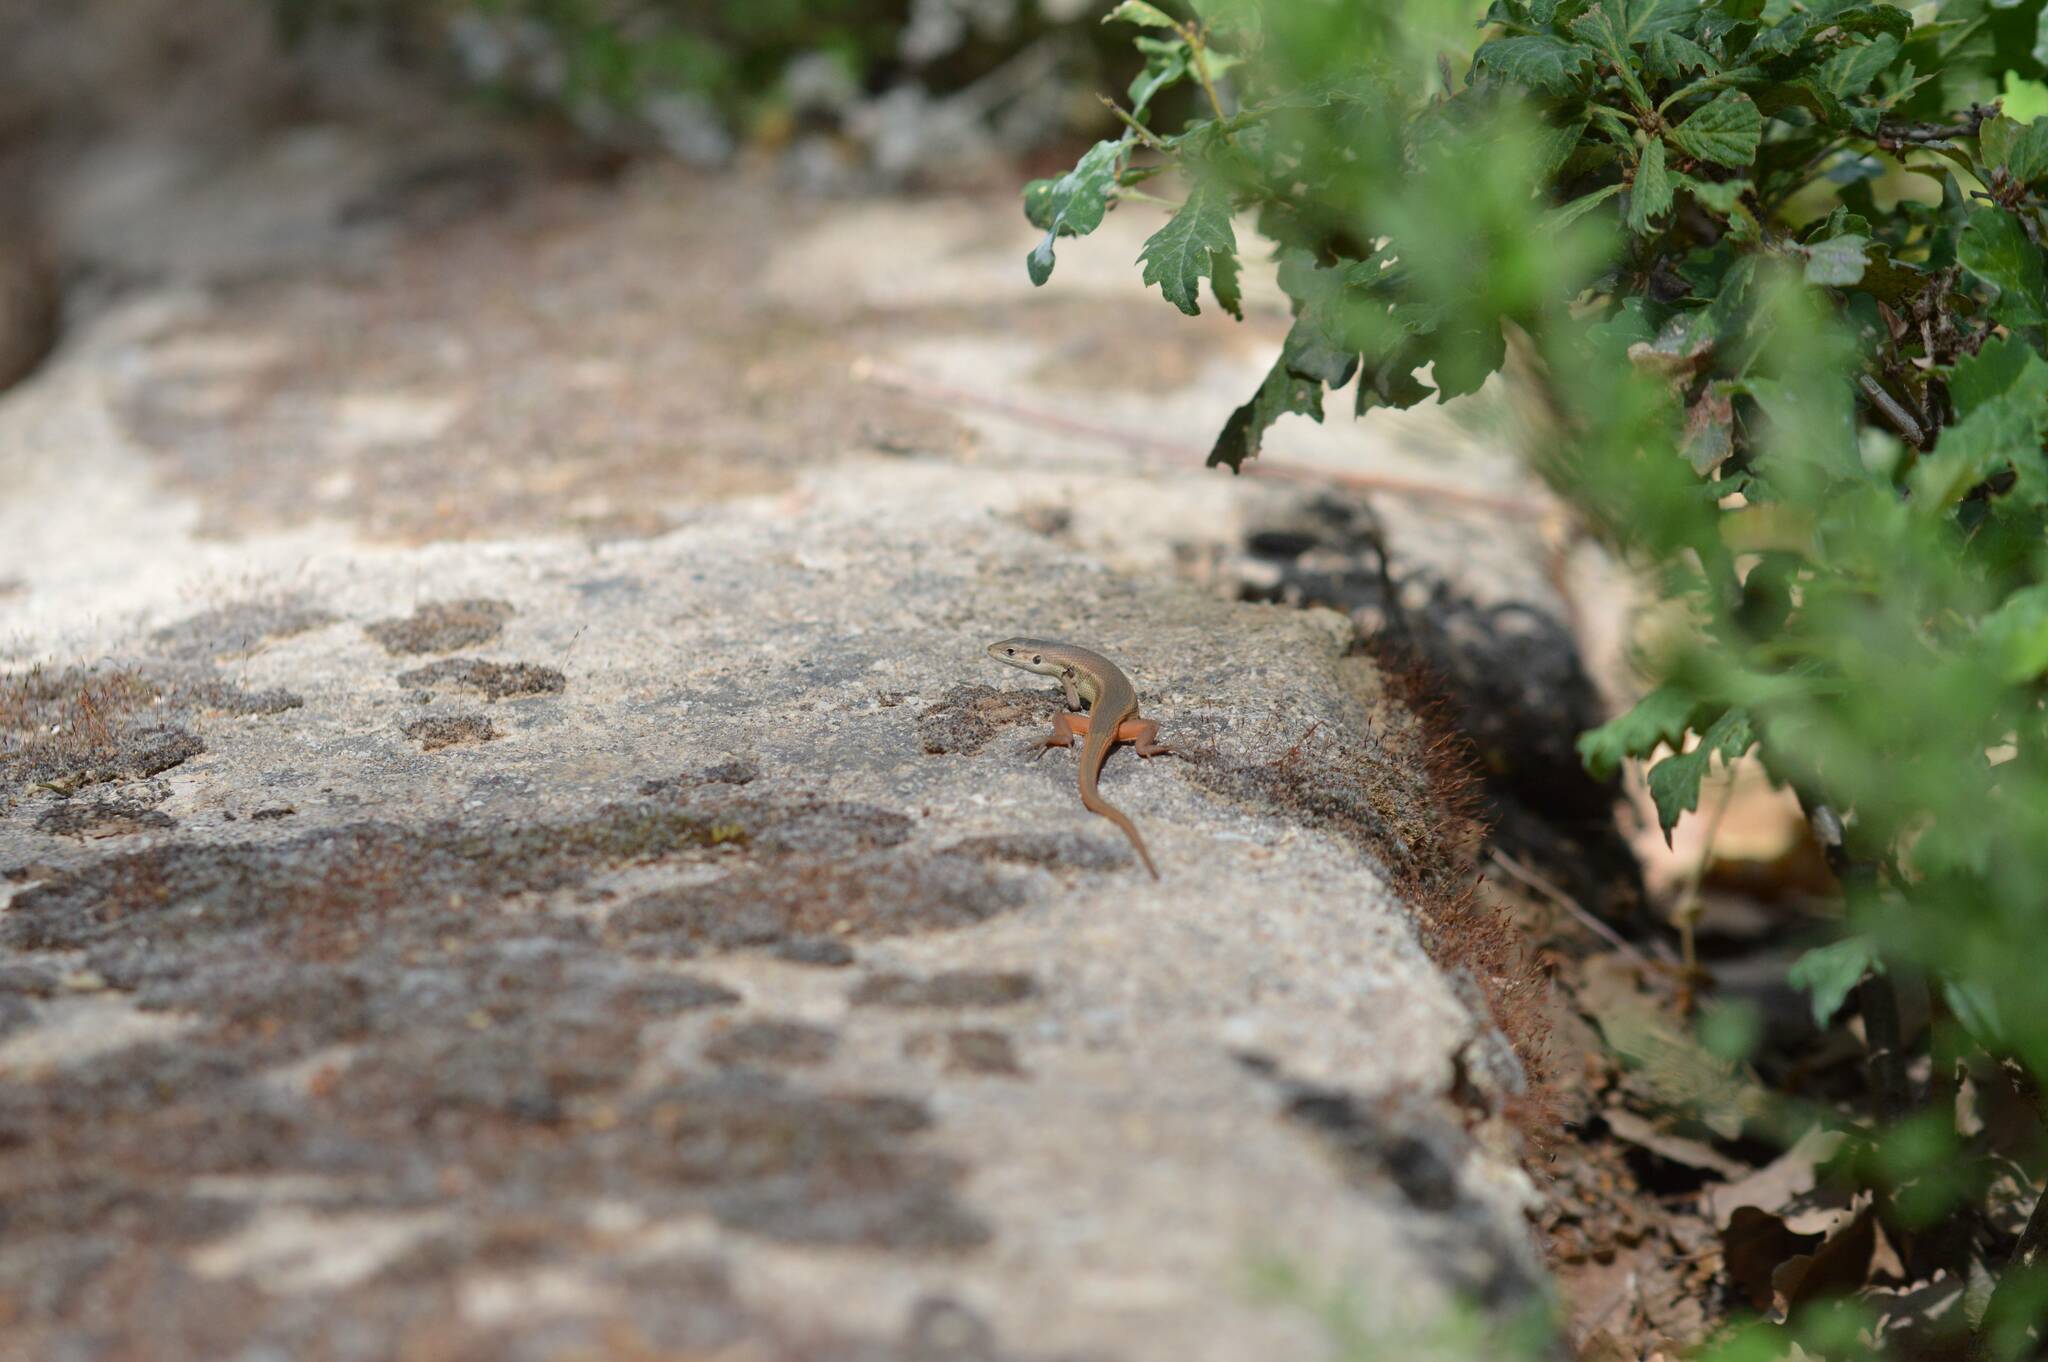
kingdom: Animalia
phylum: Chordata
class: Squamata
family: Lacertidae
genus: Psammodromus
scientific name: Psammodromus algirus
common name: Algerian psammodromus
